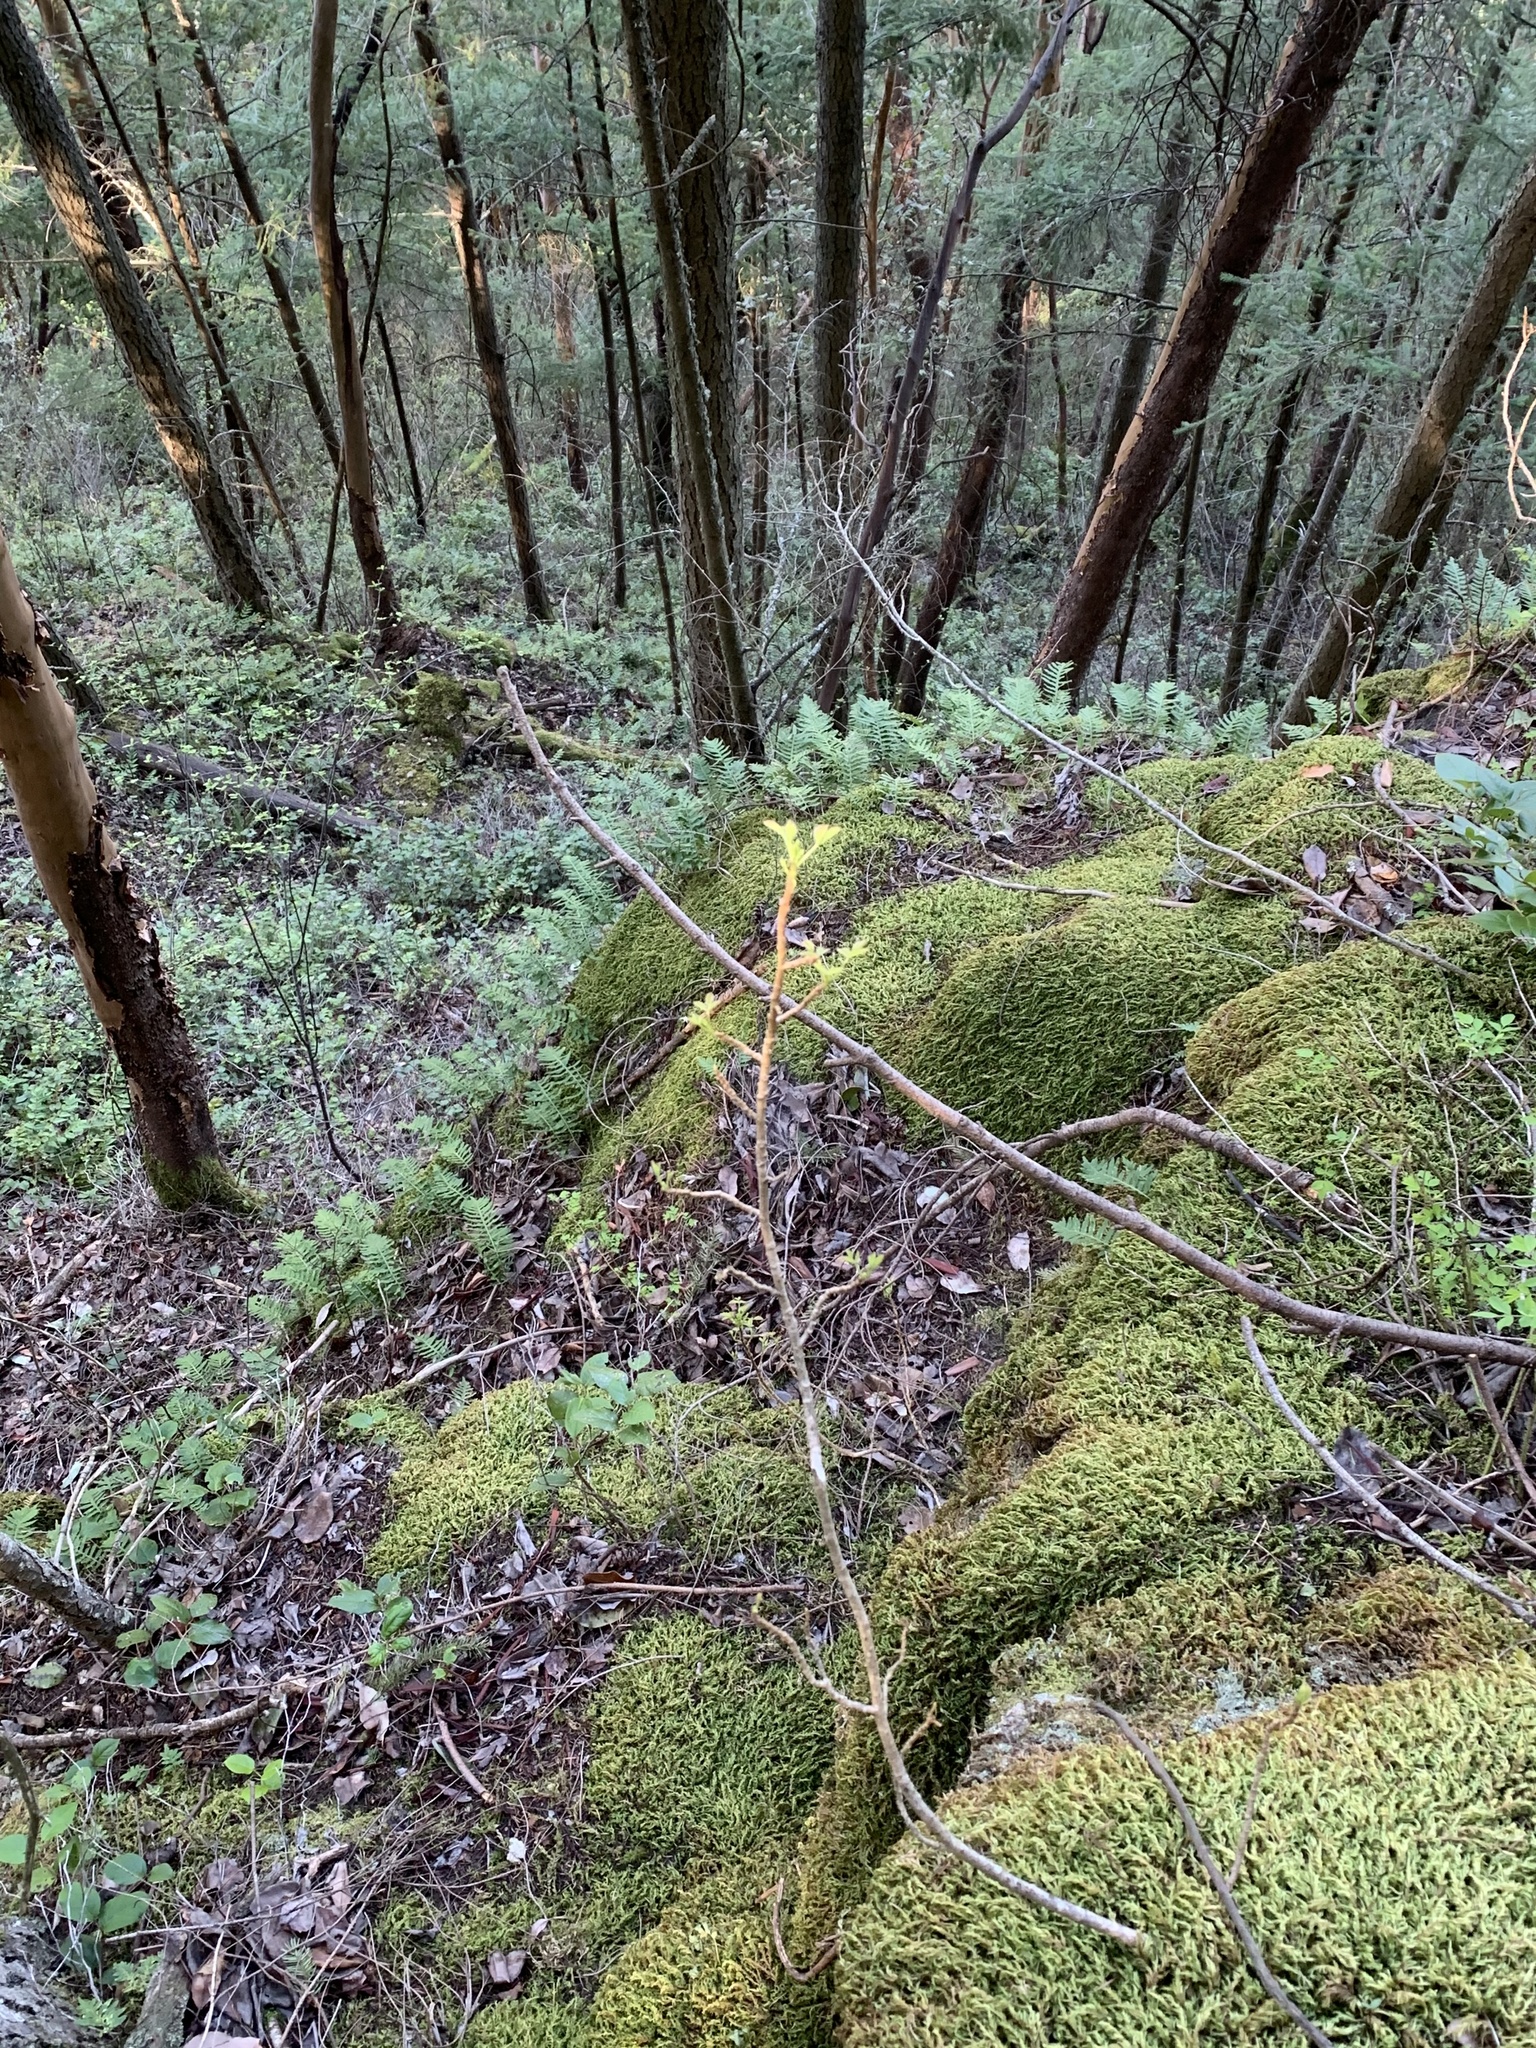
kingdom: Plantae
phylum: Tracheophyta
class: Magnoliopsida
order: Sapindales
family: Anacardiaceae
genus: Toxicodendron
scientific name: Toxicodendron diversilobum
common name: Pacific poison-oak
